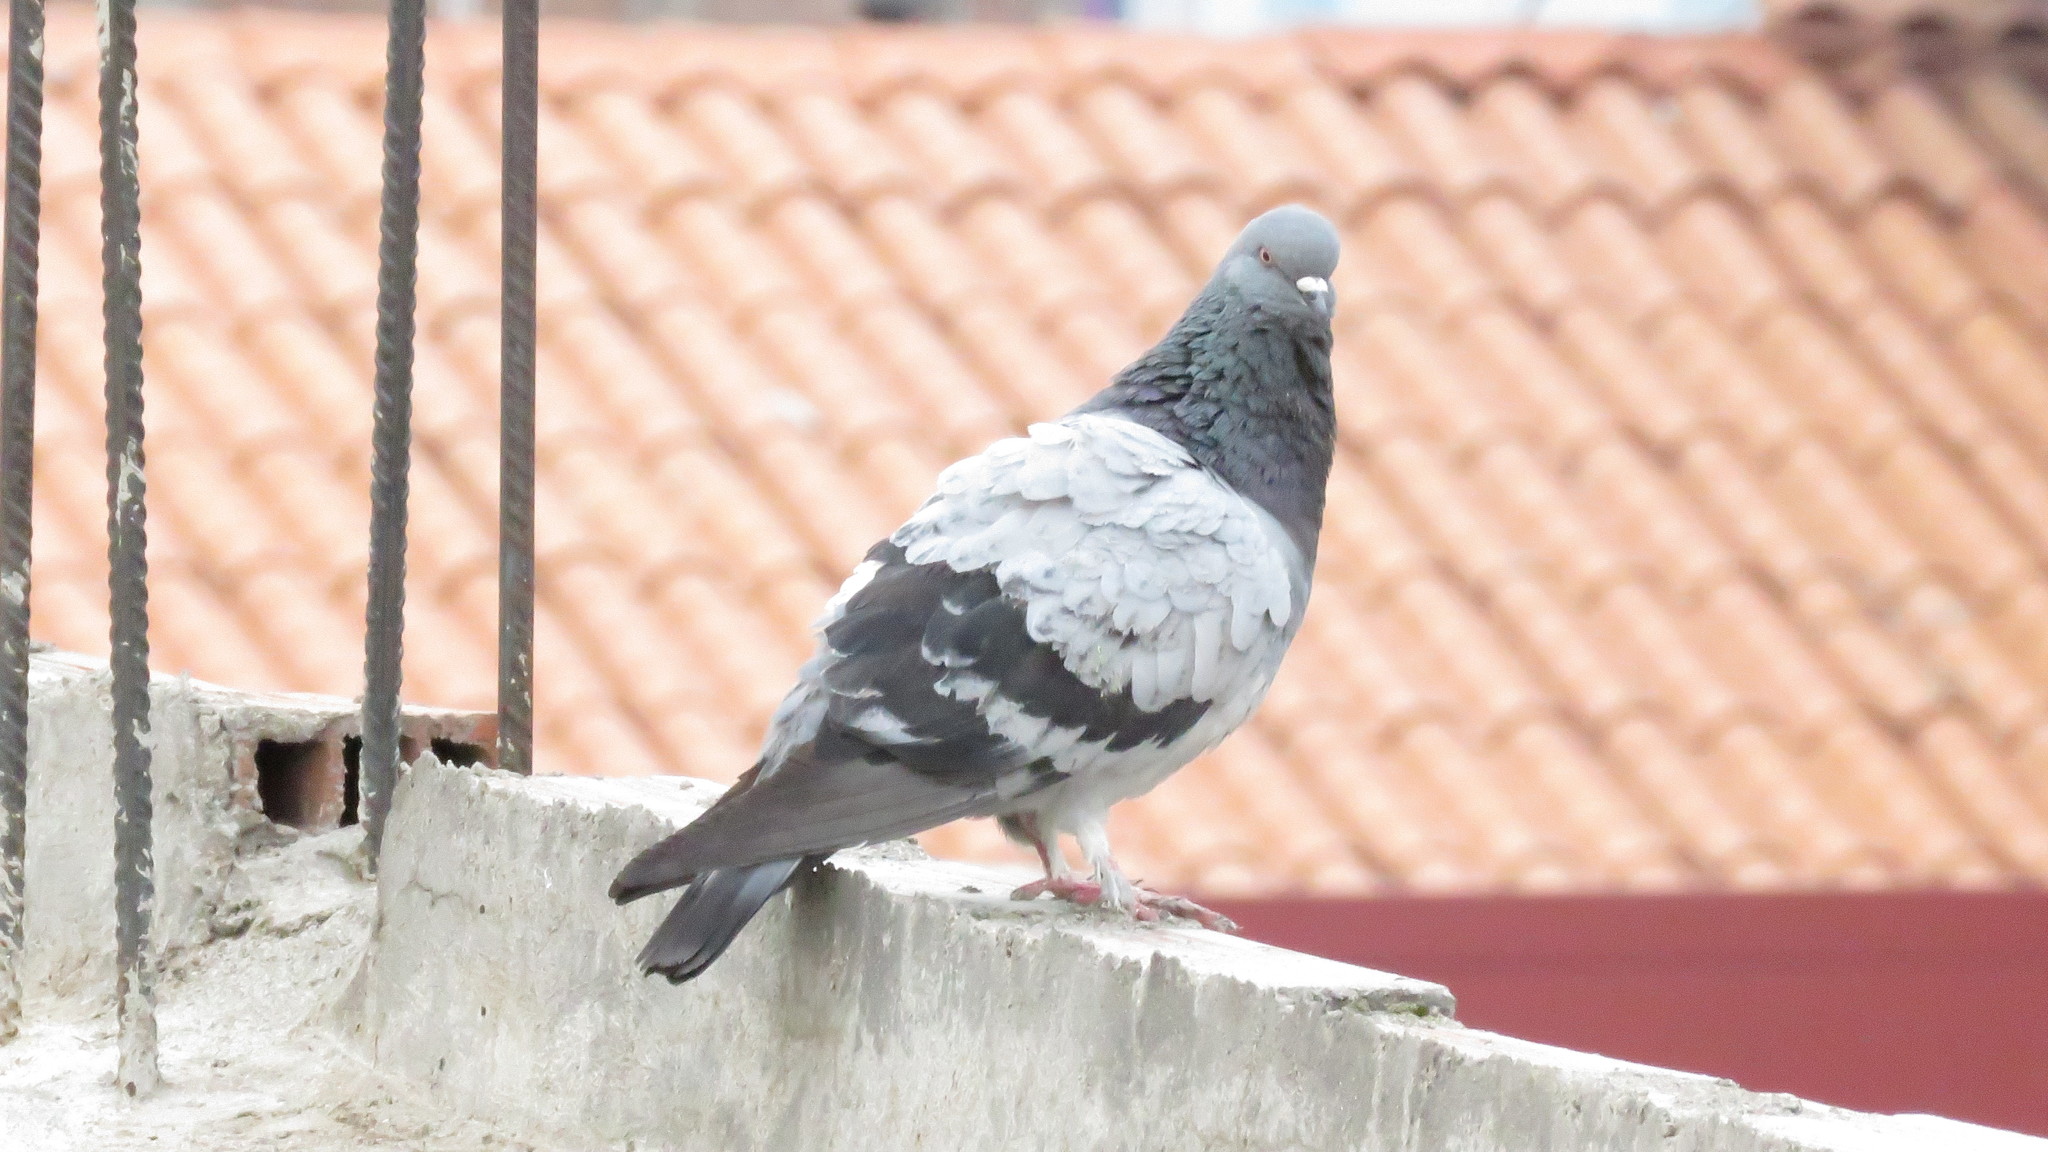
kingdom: Animalia
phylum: Chordata
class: Aves
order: Columbiformes
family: Columbidae
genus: Columba
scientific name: Columba livia
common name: Rock pigeon
